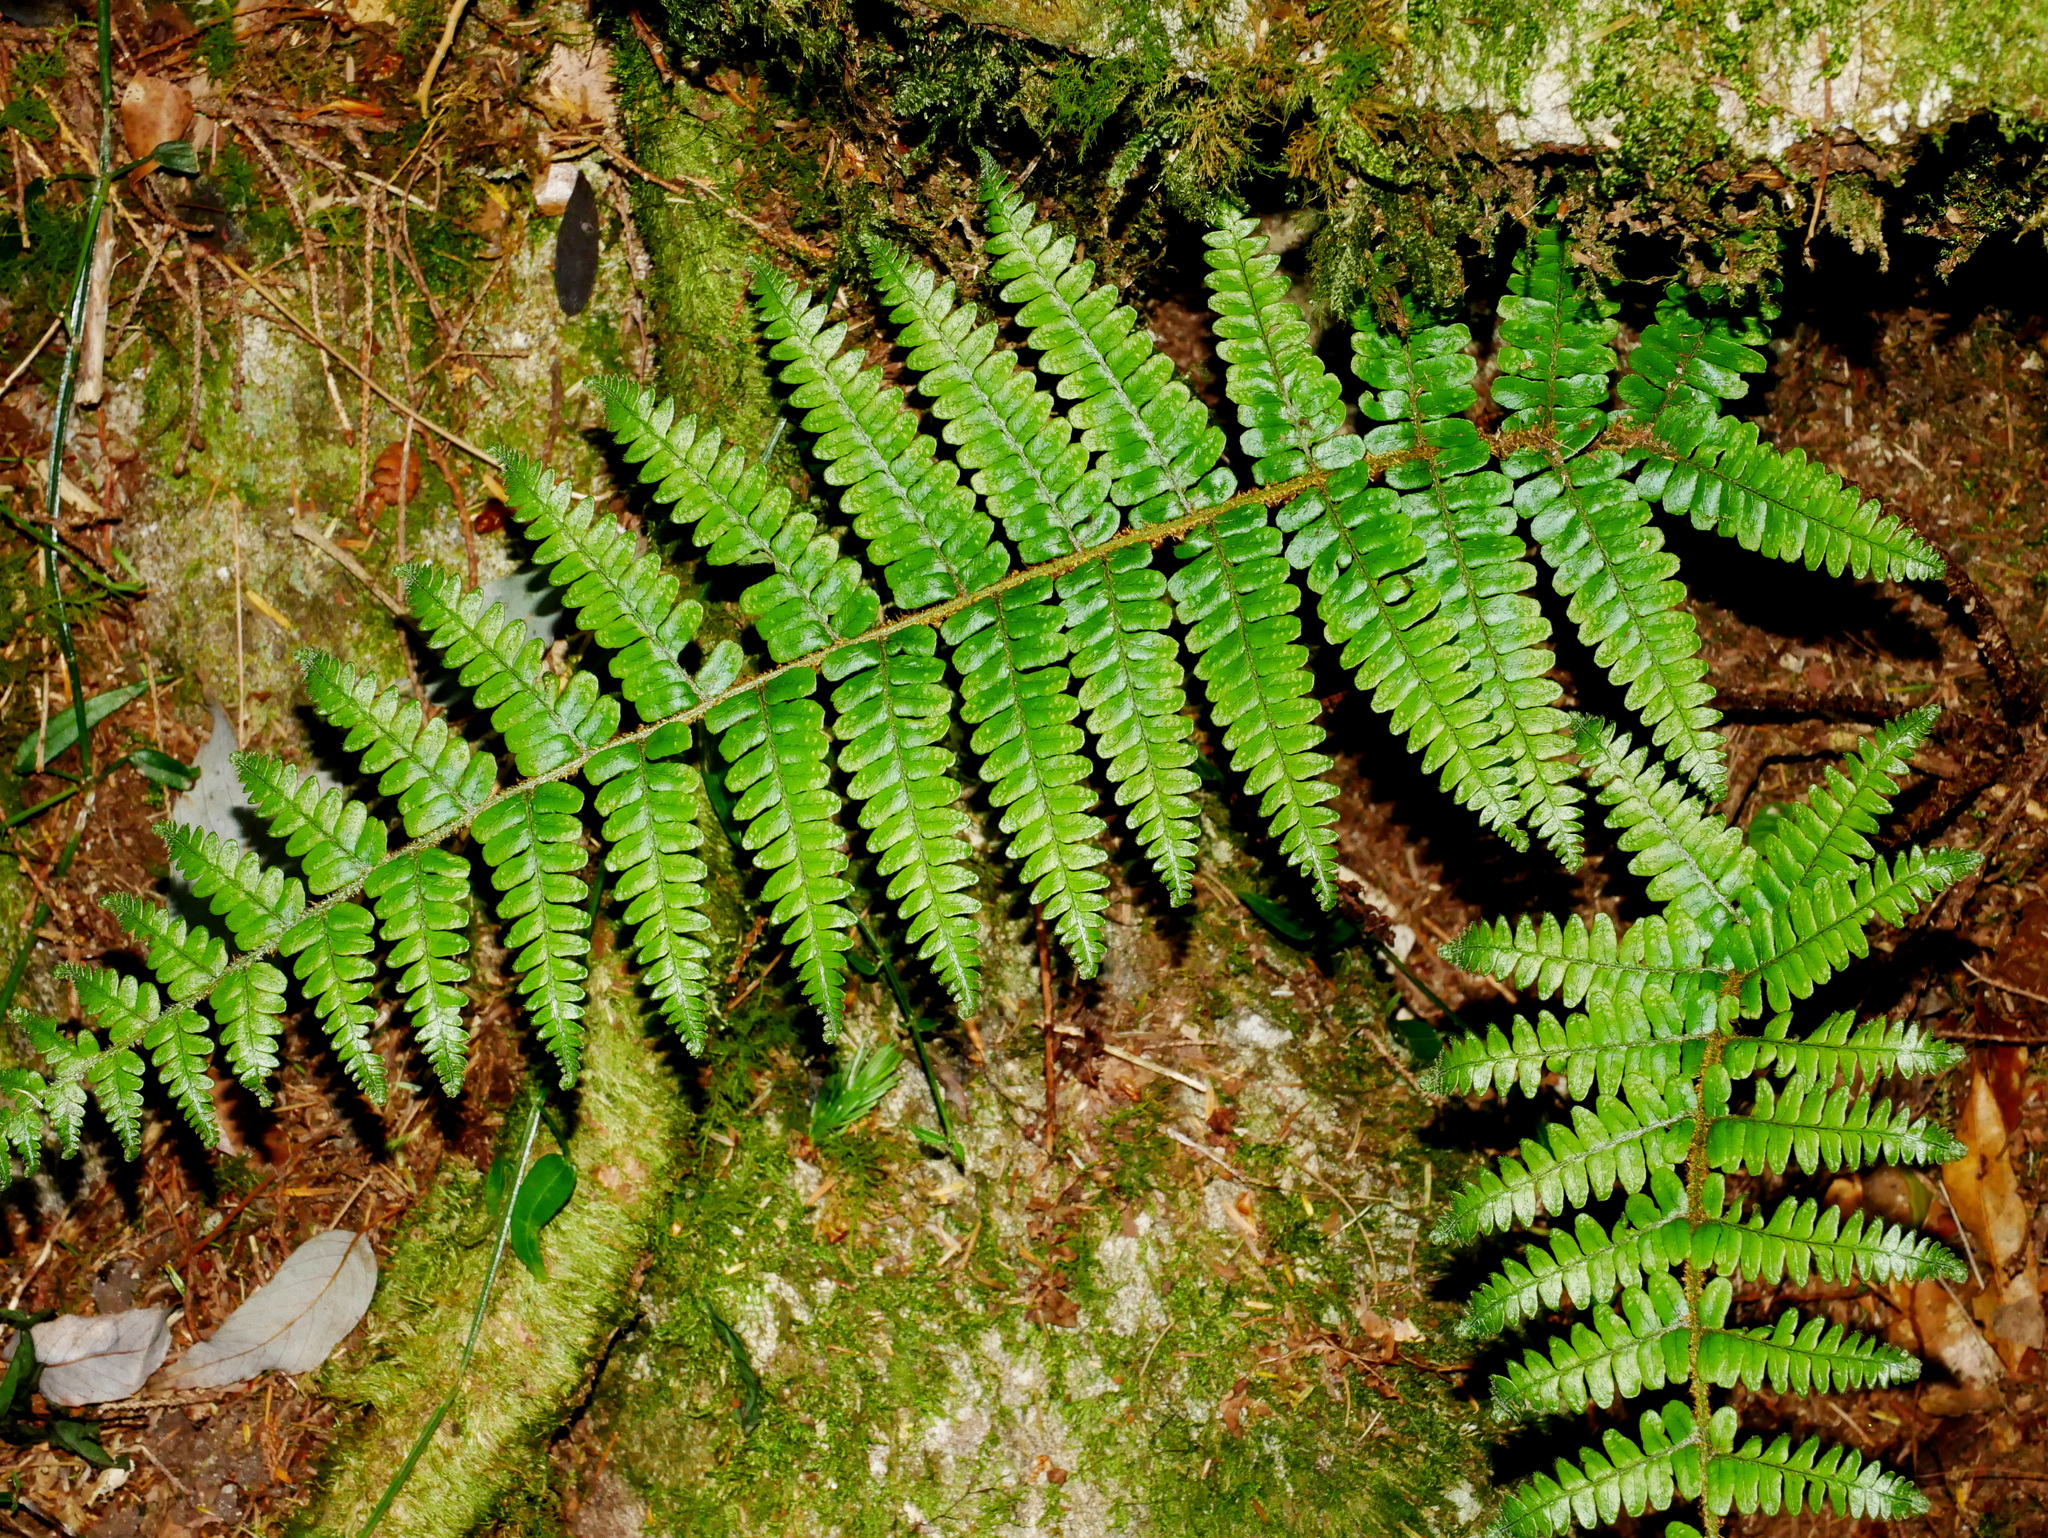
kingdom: Plantae
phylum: Tracheophyta
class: Polypodiopsida
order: Polypodiales
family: Dryopteridaceae
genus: Dryopteris
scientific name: Dryopteris apiciflora
